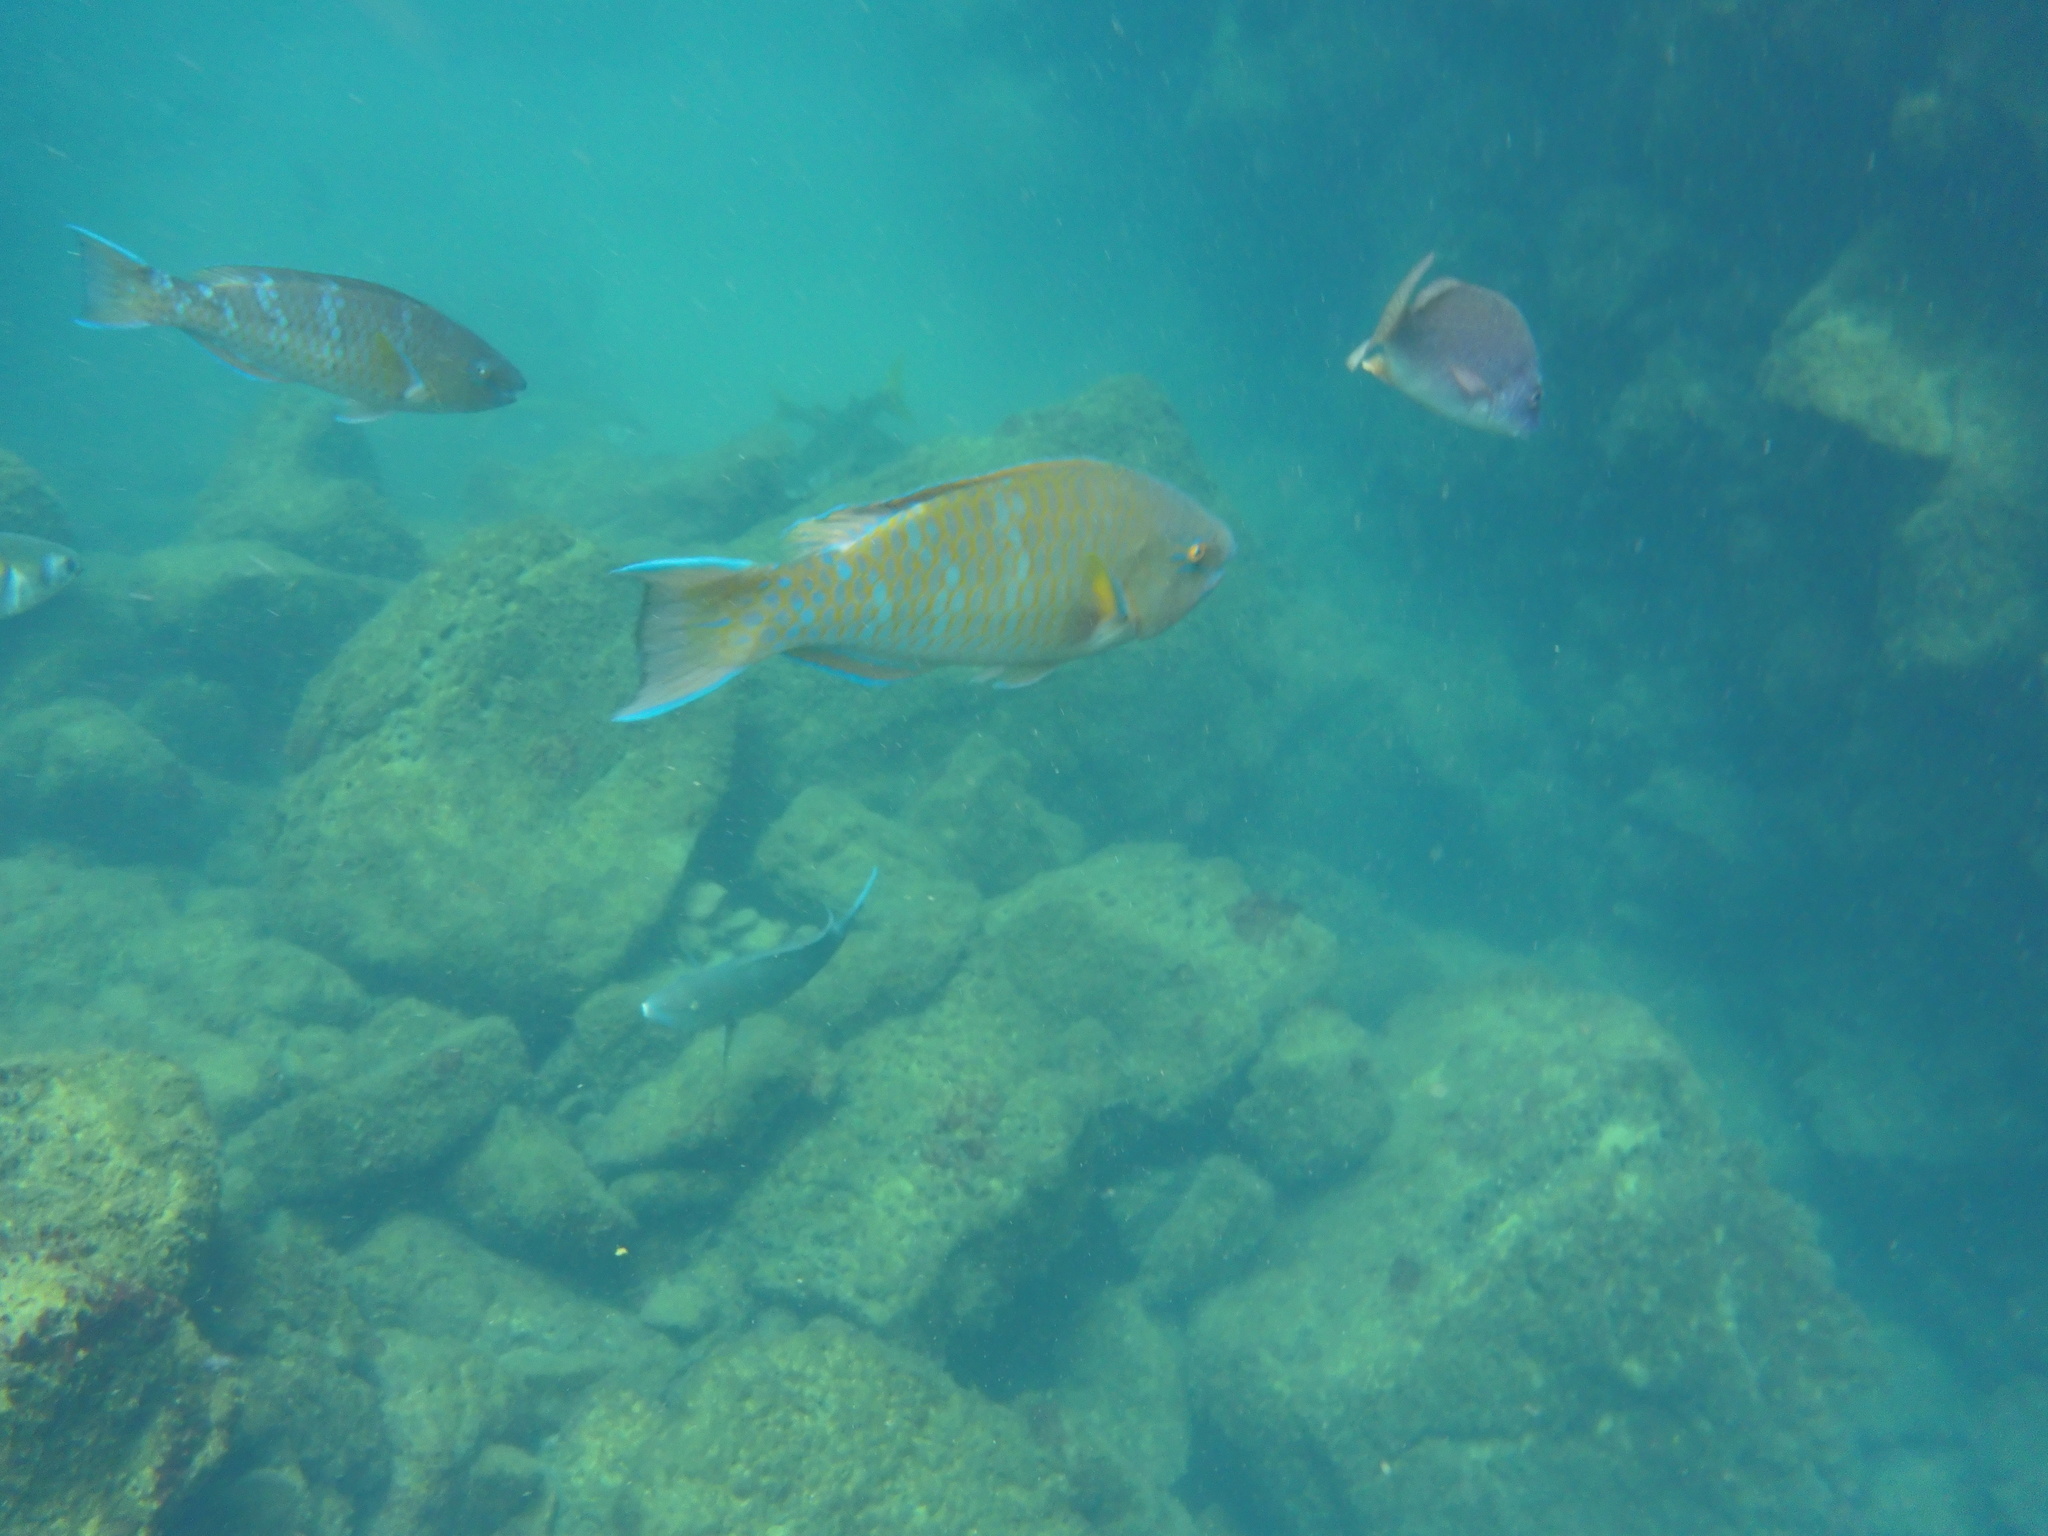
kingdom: Animalia
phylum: Chordata
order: Perciformes
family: Scaridae
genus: Scarus
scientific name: Scarus ghobban
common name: Blue-barred parrotfish
